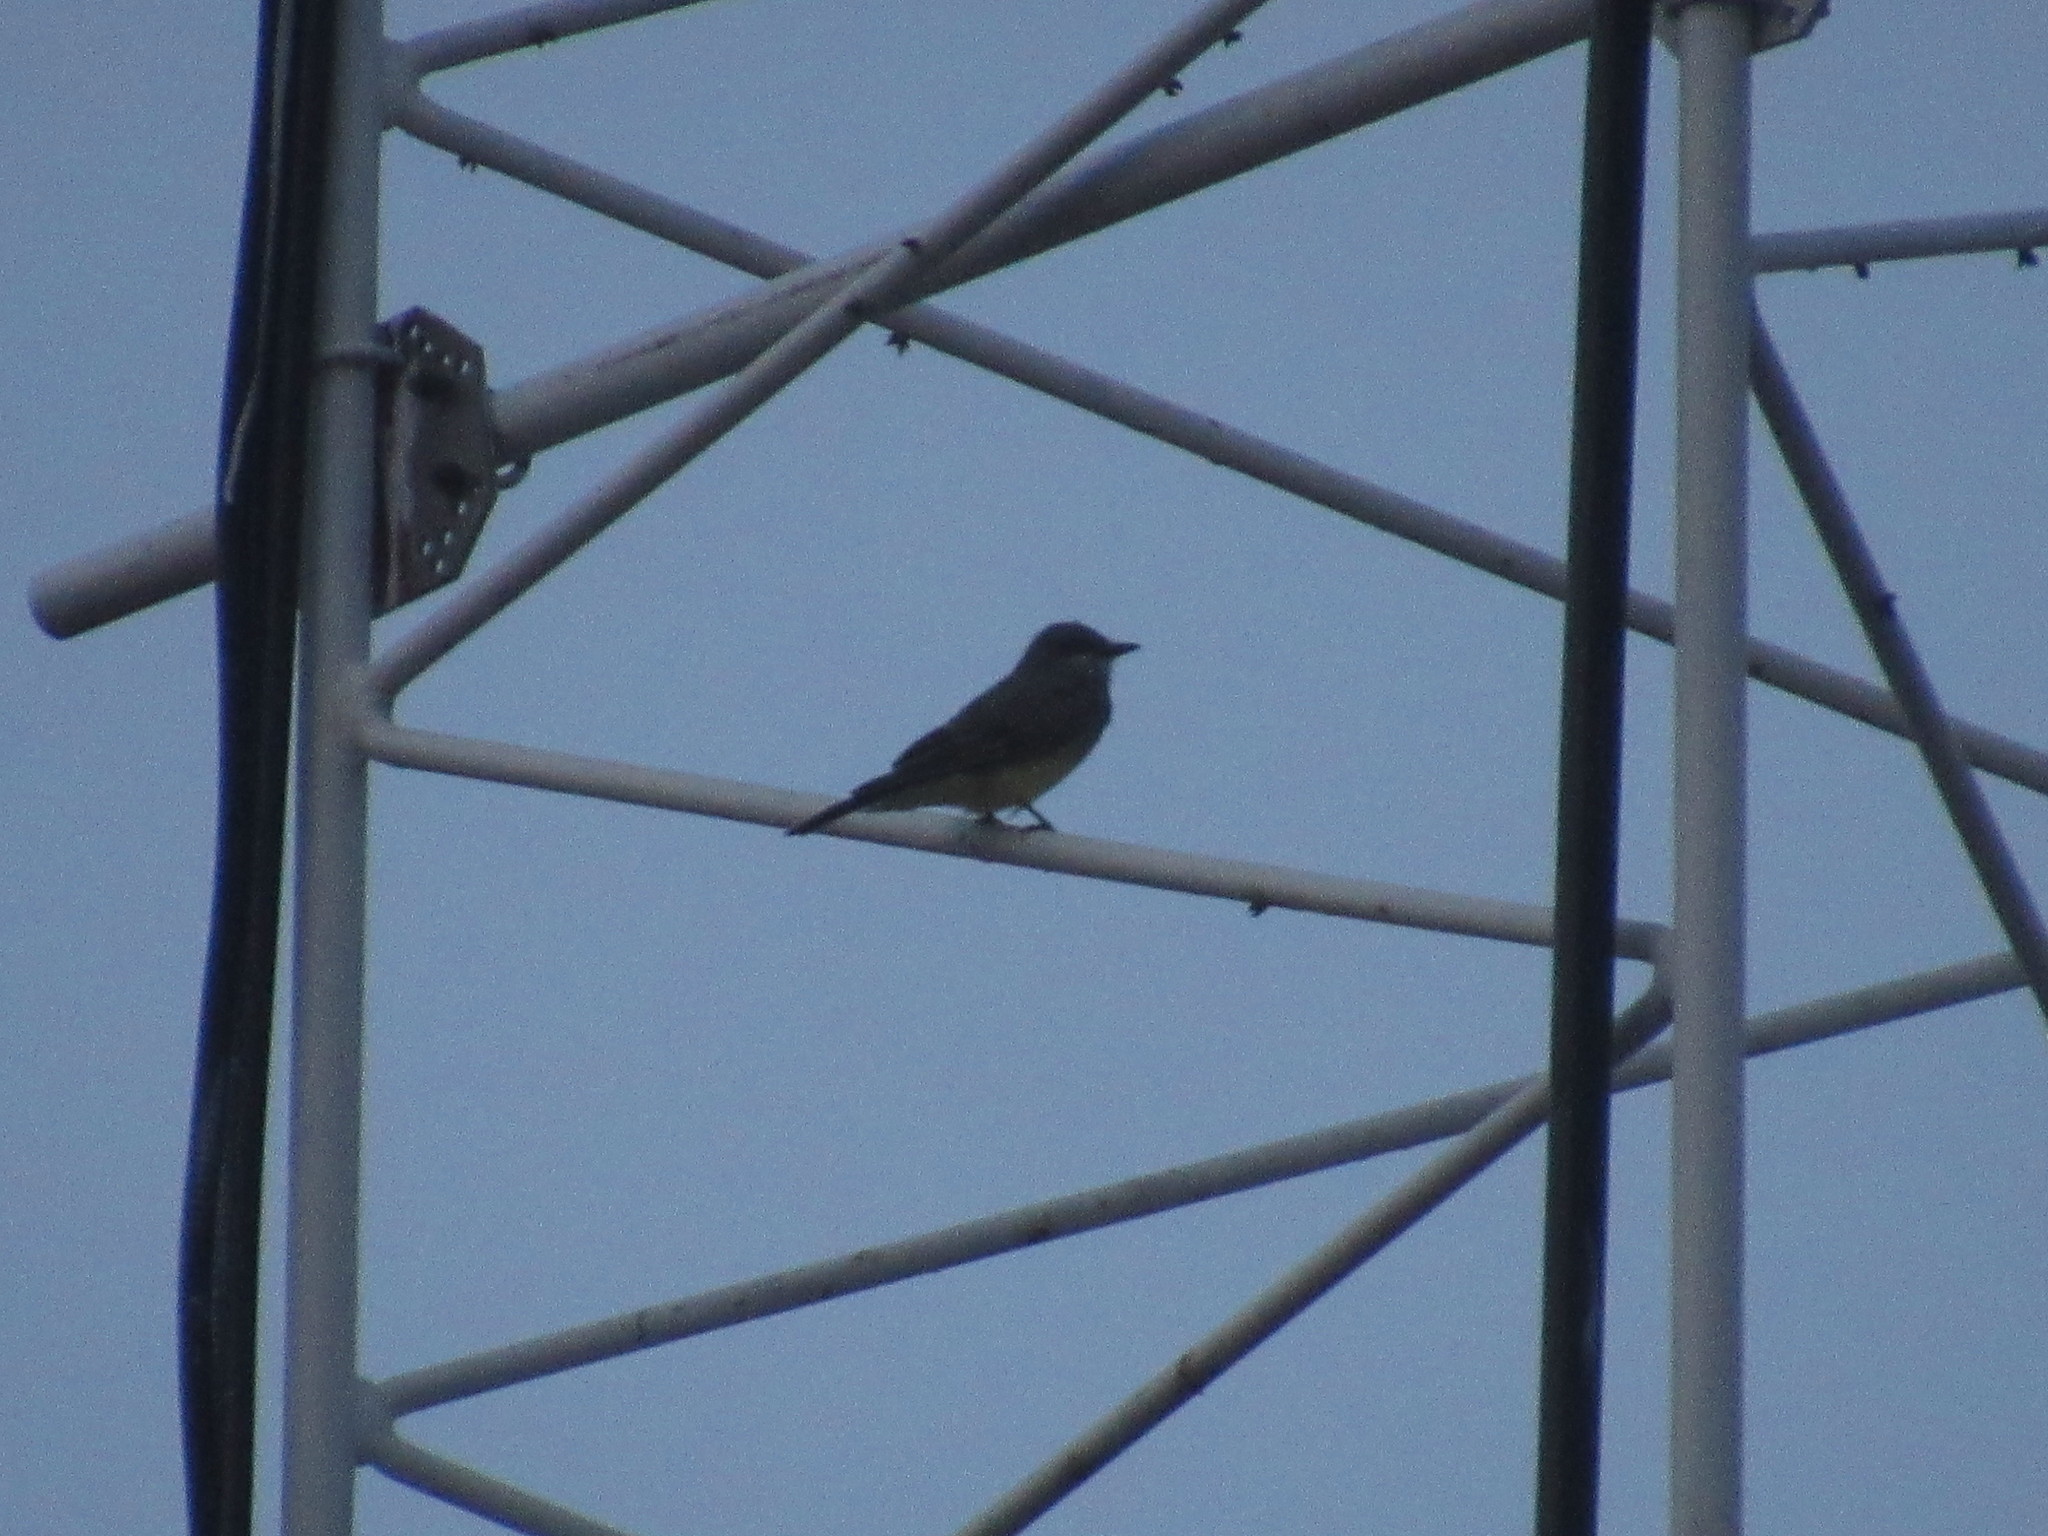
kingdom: Animalia
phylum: Chordata
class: Aves
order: Passeriformes
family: Tyrannidae
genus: Tyrannus
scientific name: Tyrannus vociferans
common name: Cassin's kingbird
